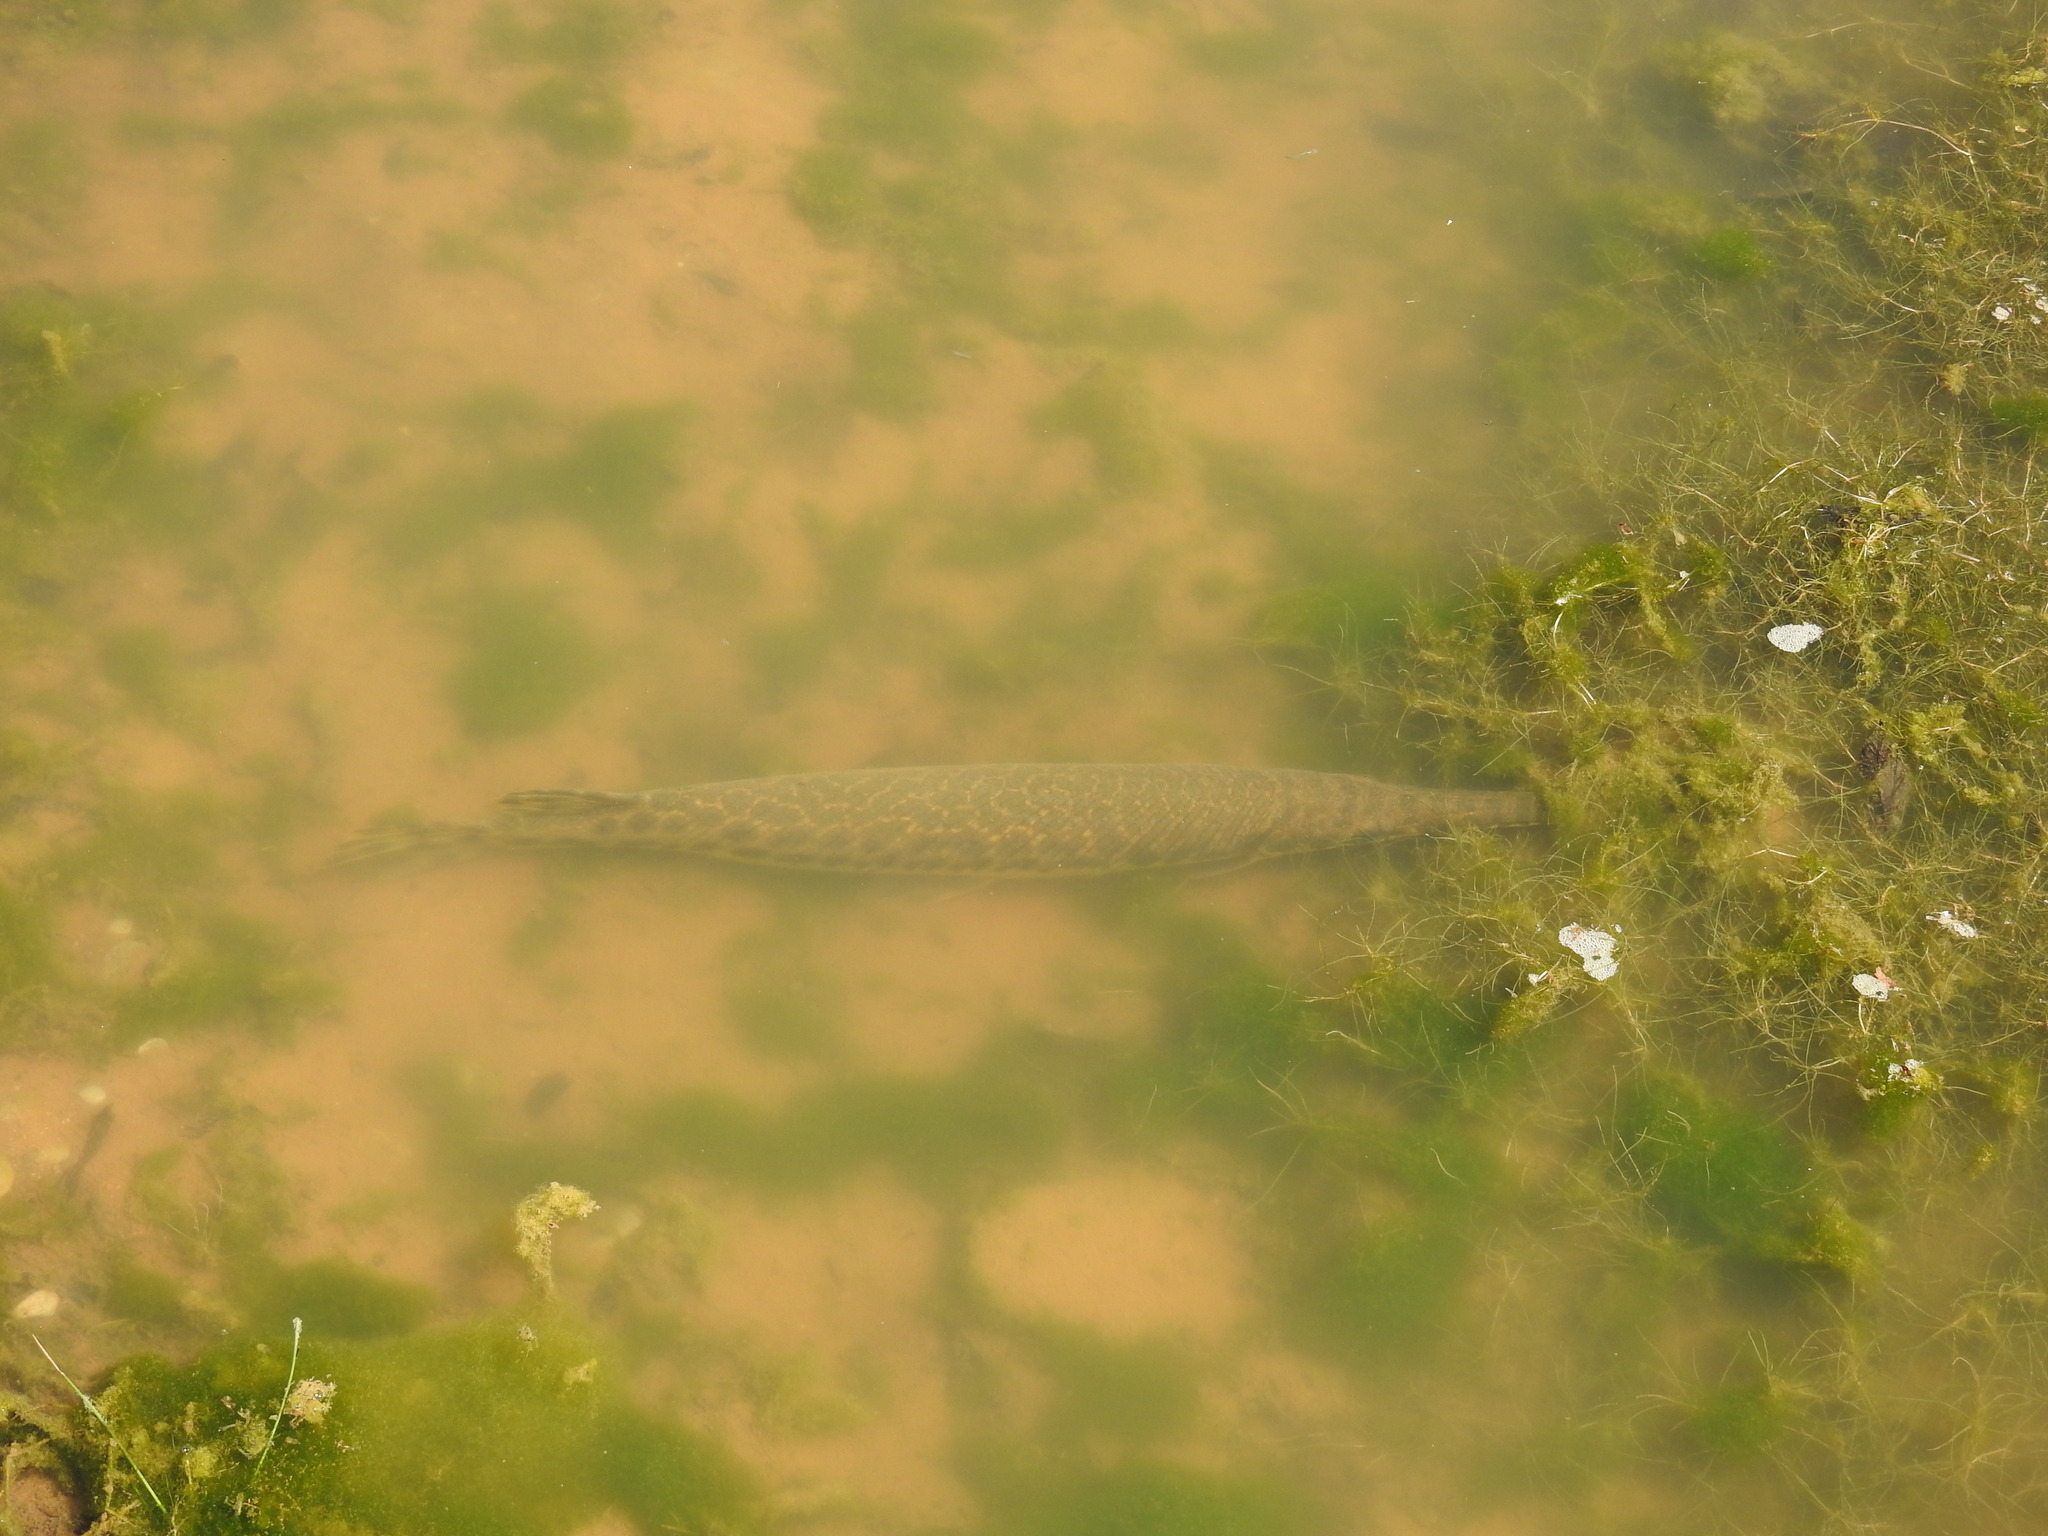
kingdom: Animalia
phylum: Chordata
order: Lepisosteiformes
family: Lepisosteidae
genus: Lepisosteus
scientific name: Lepisosteus oculatus
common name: Spotted gar
